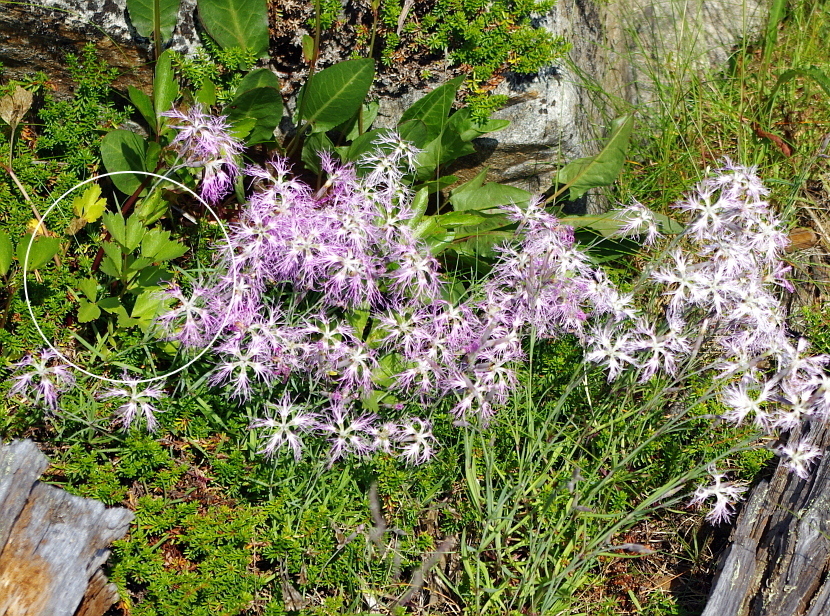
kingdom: Plantae
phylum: Tracheophyta
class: Magnoliopsida
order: Apiales
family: Apiaceae
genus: Ligusticum
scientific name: Ligusticum scothicum
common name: Beach lovage
